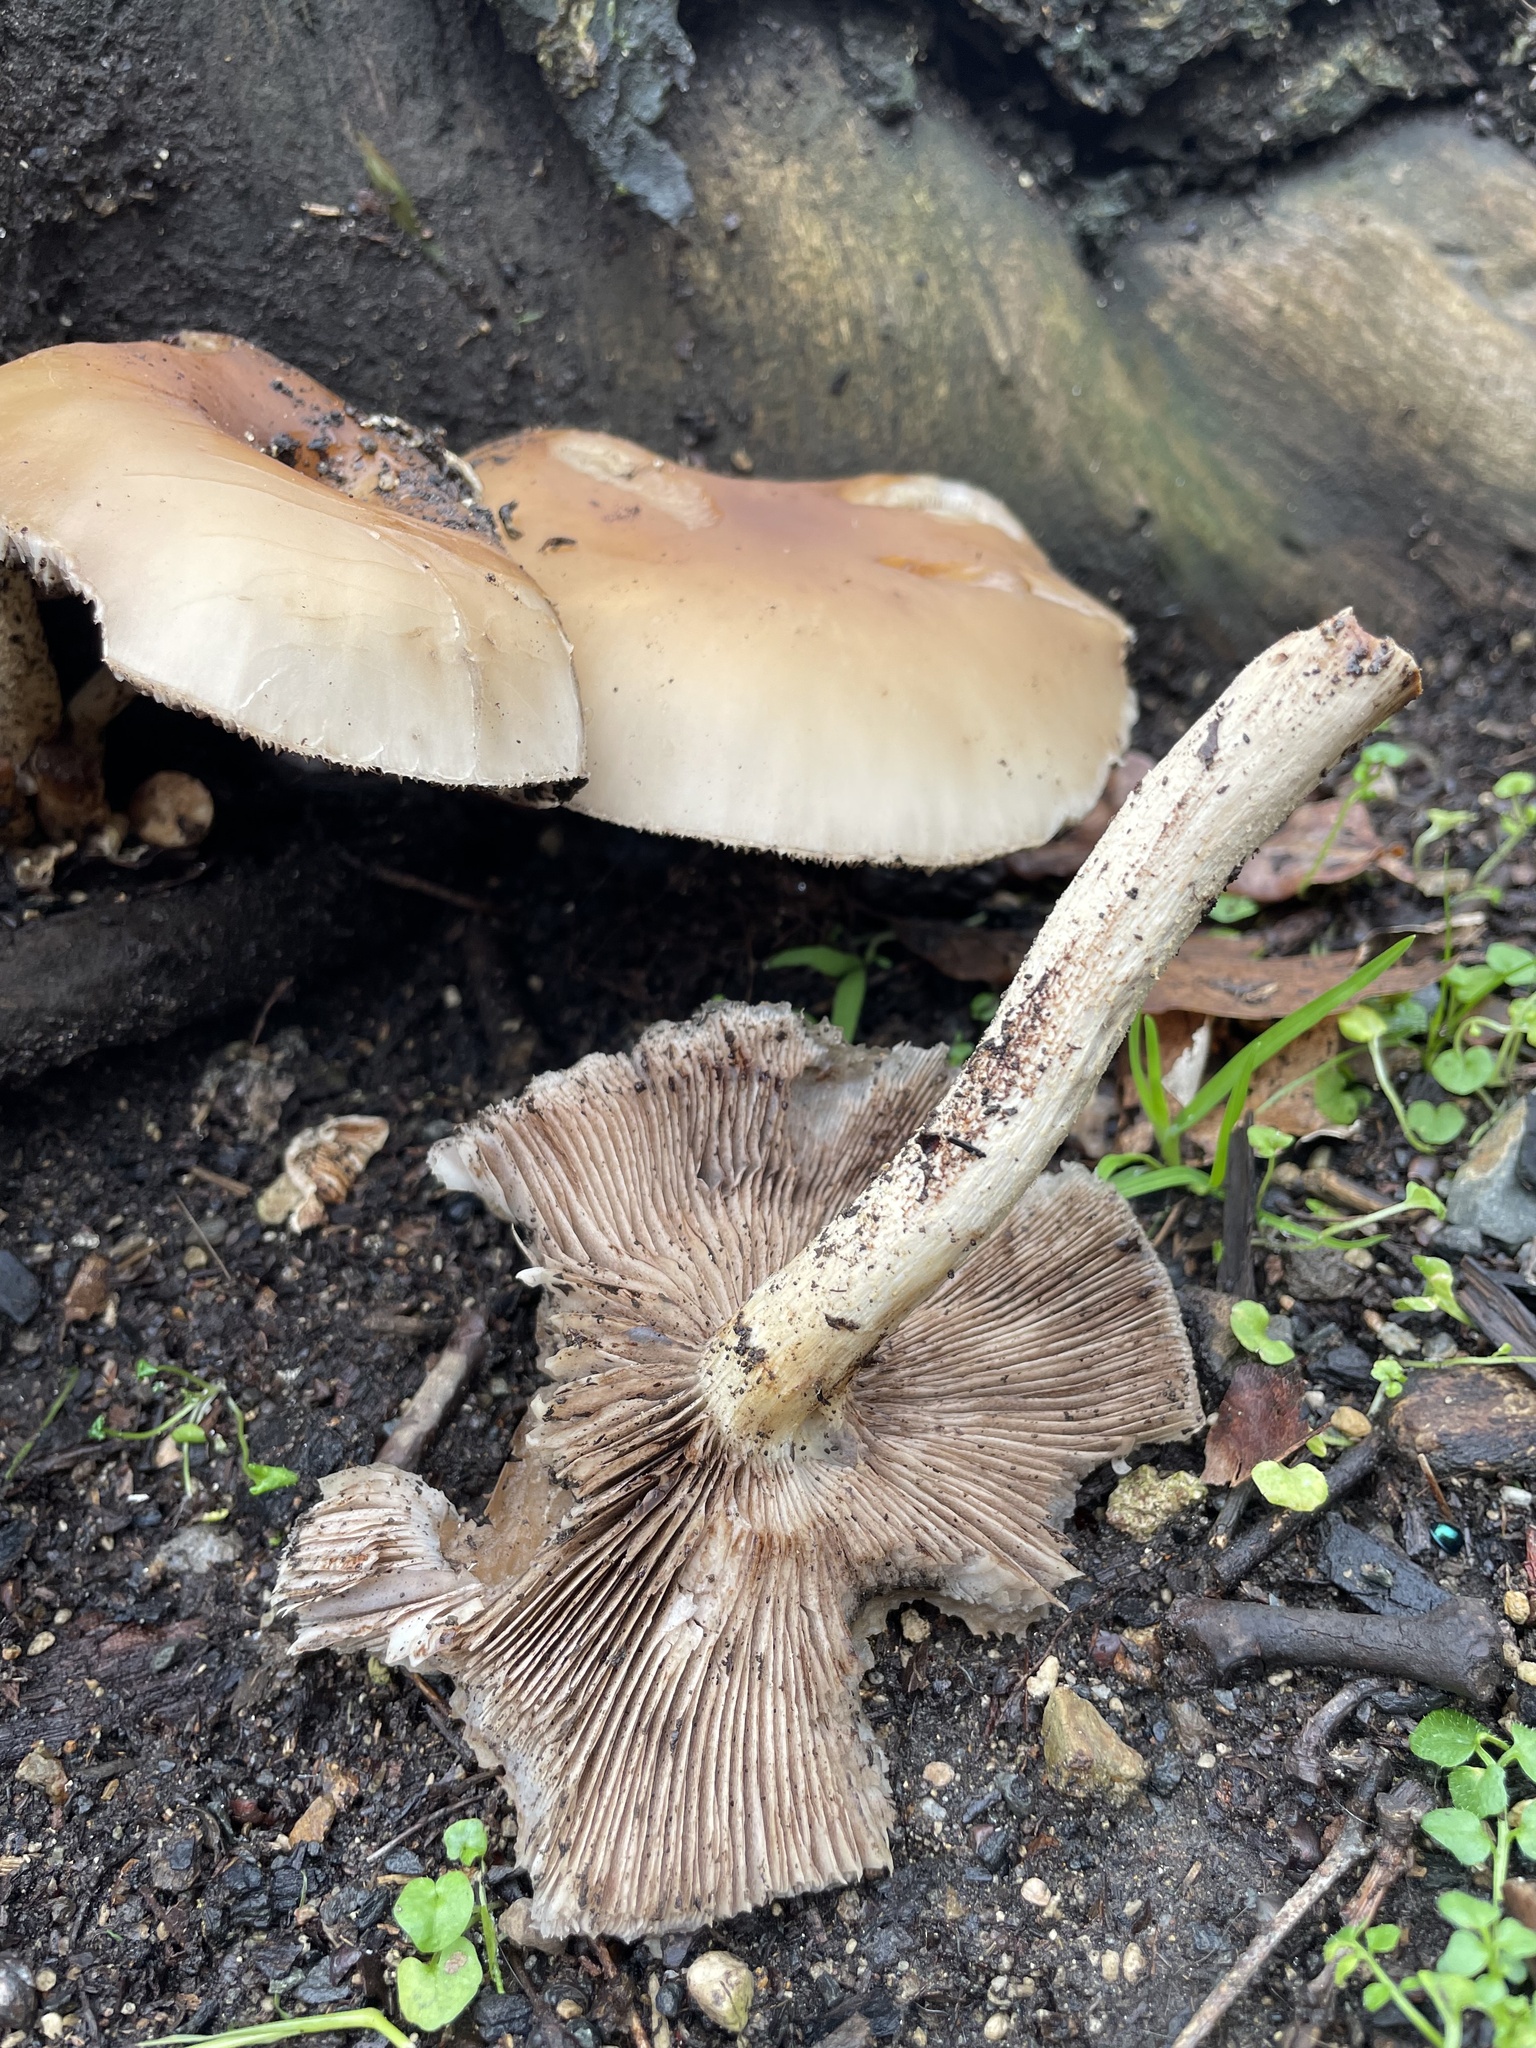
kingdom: Fungi
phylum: Basidiomycota
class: Agaricomycetes
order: Agaricales
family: Tubariaceae
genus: Cyclocybe
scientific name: Cyclocybe parasitica
